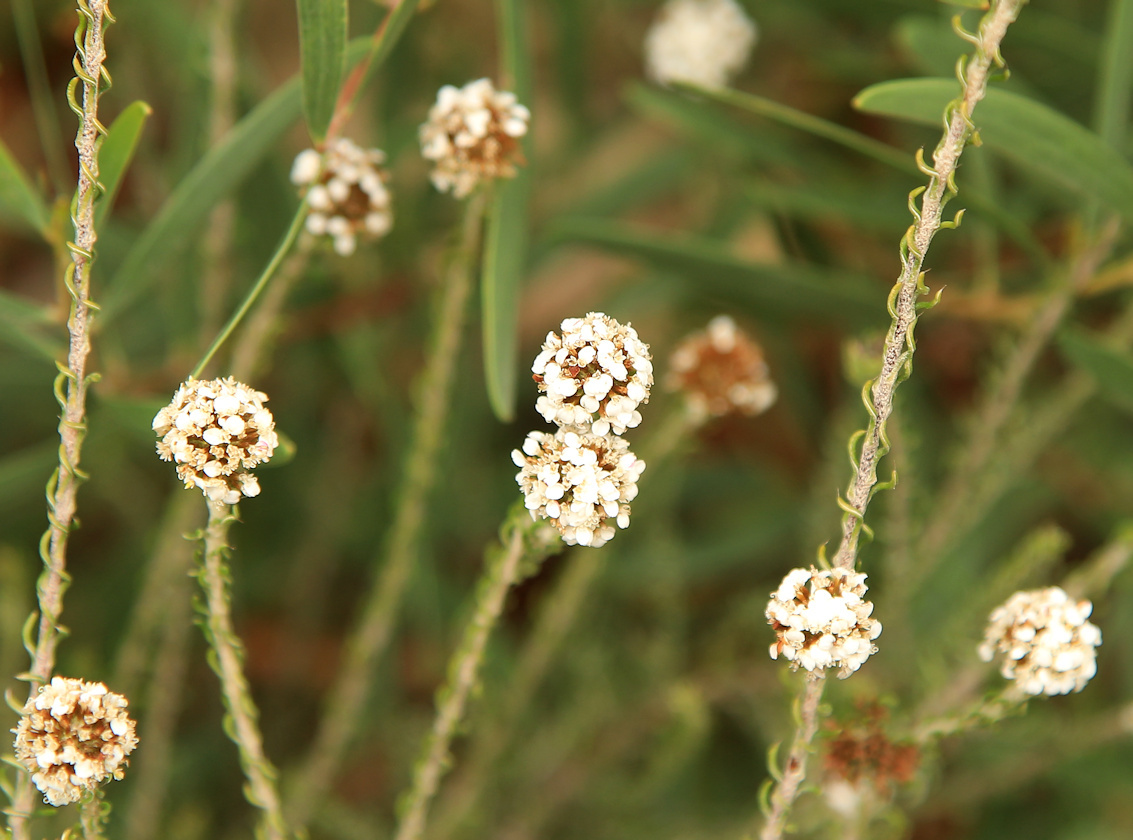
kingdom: Plantae
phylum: Tracheophyta
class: Magnoliopsida
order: Asterales
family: Asteraceae
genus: Disparago
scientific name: Disparago anomala
